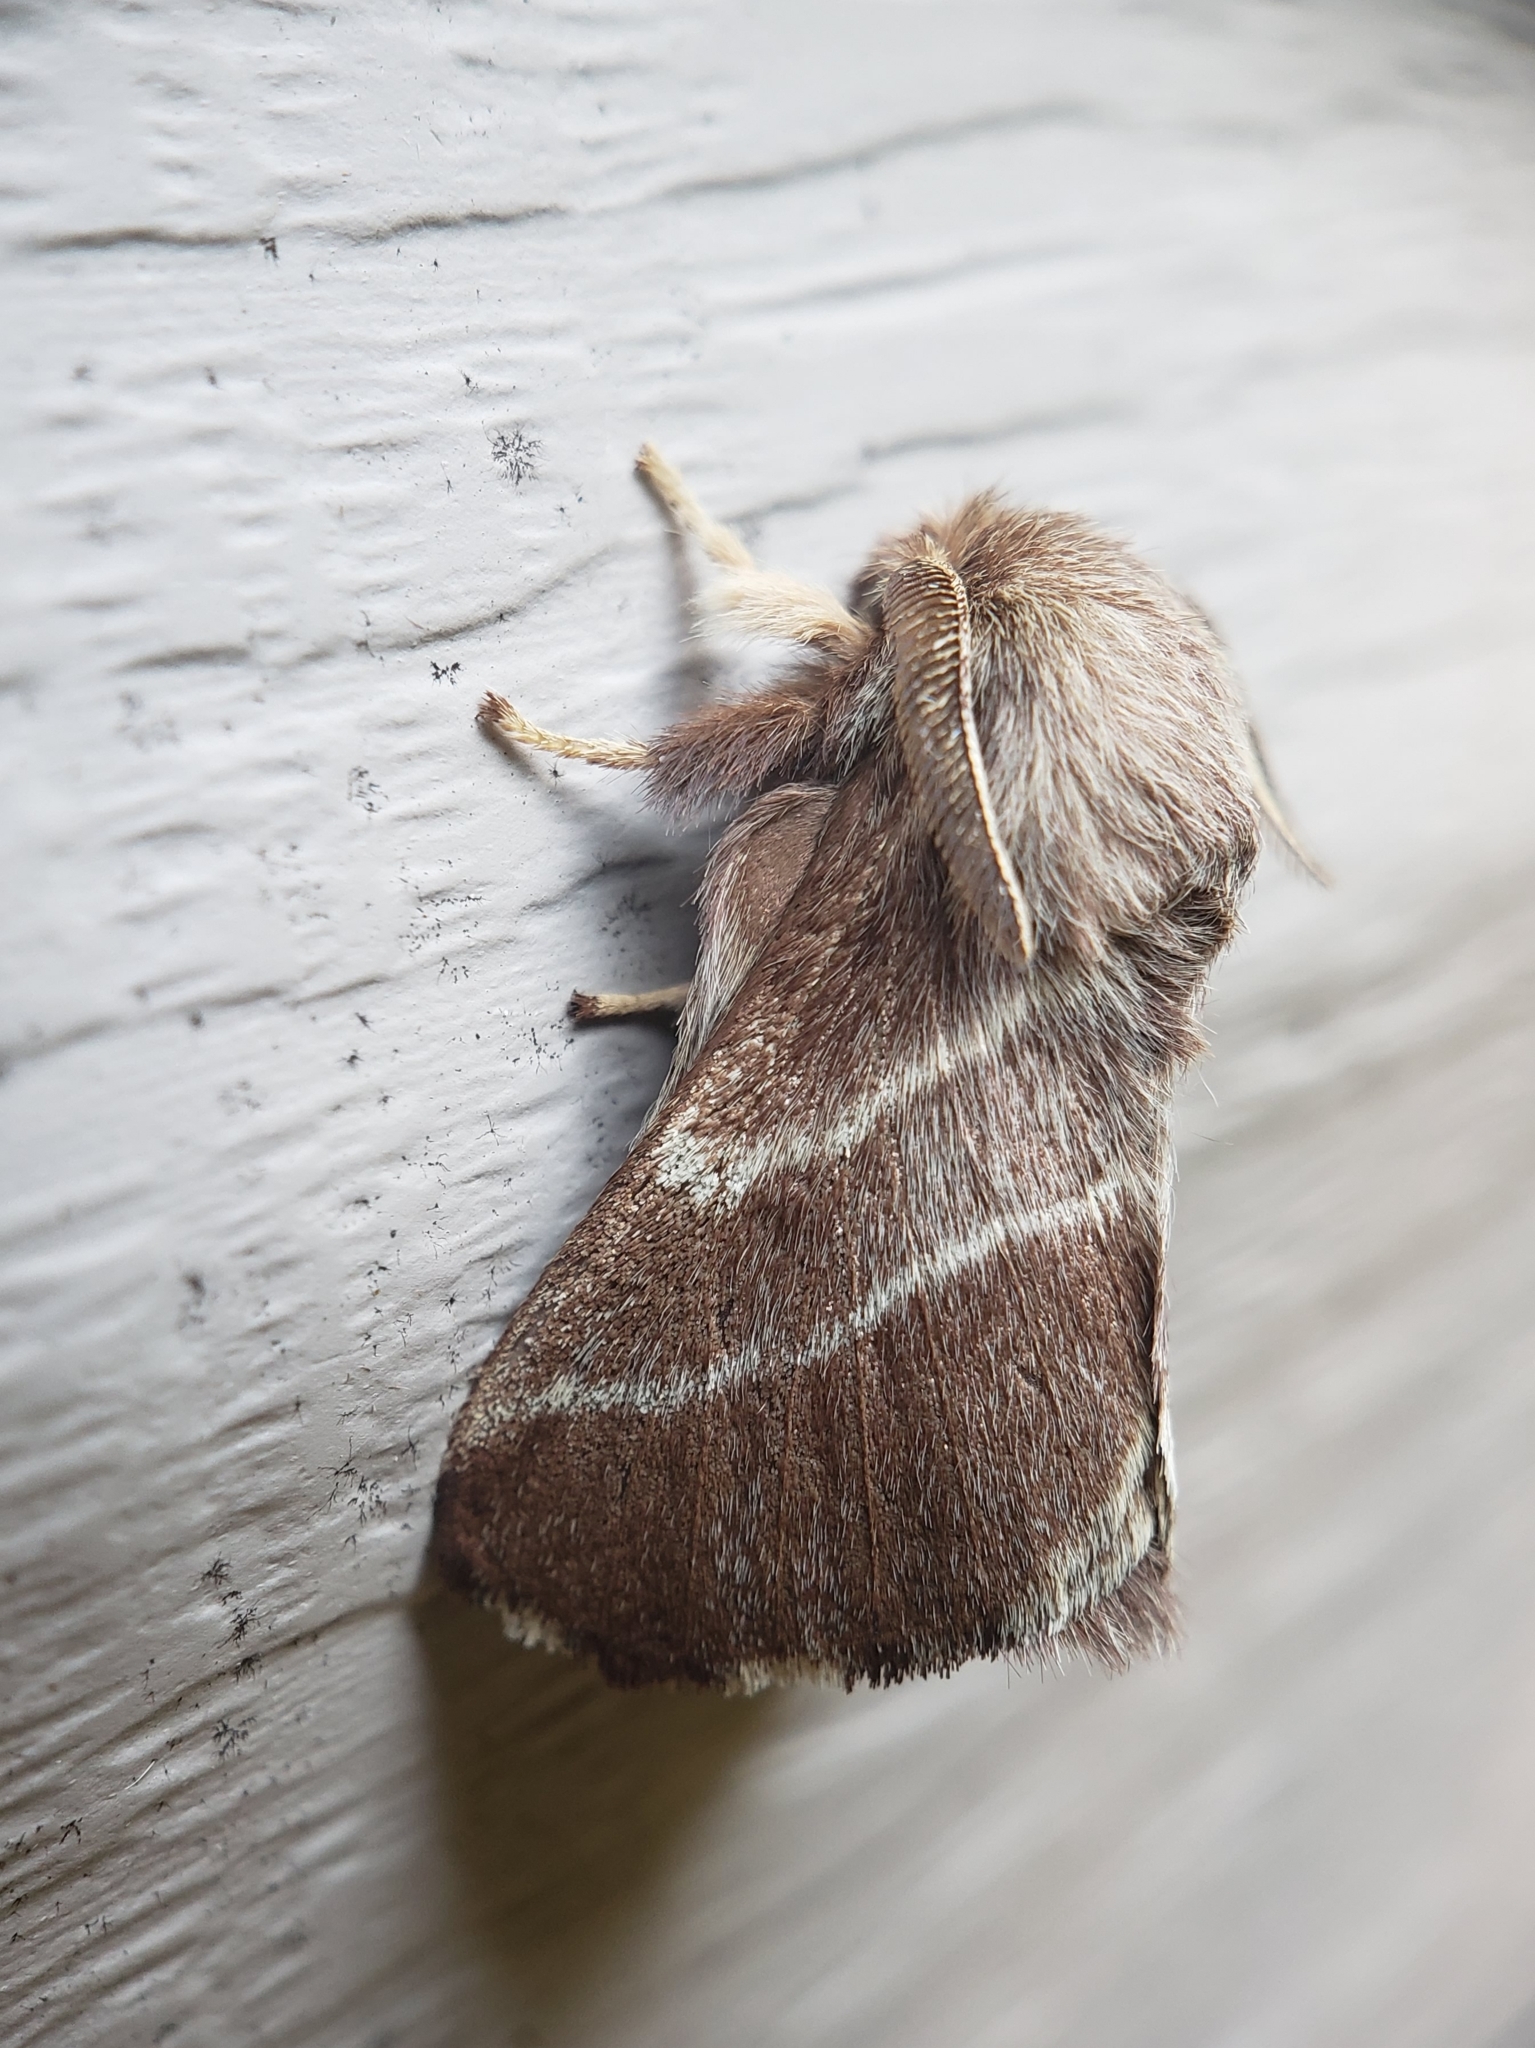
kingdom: Animalia
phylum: Arthropoda
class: Insecta
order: Lepidoptera
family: Lasiocampidae
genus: Malacosoma
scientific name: Malacosoma americana
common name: Eastern tent caterpillar moth
